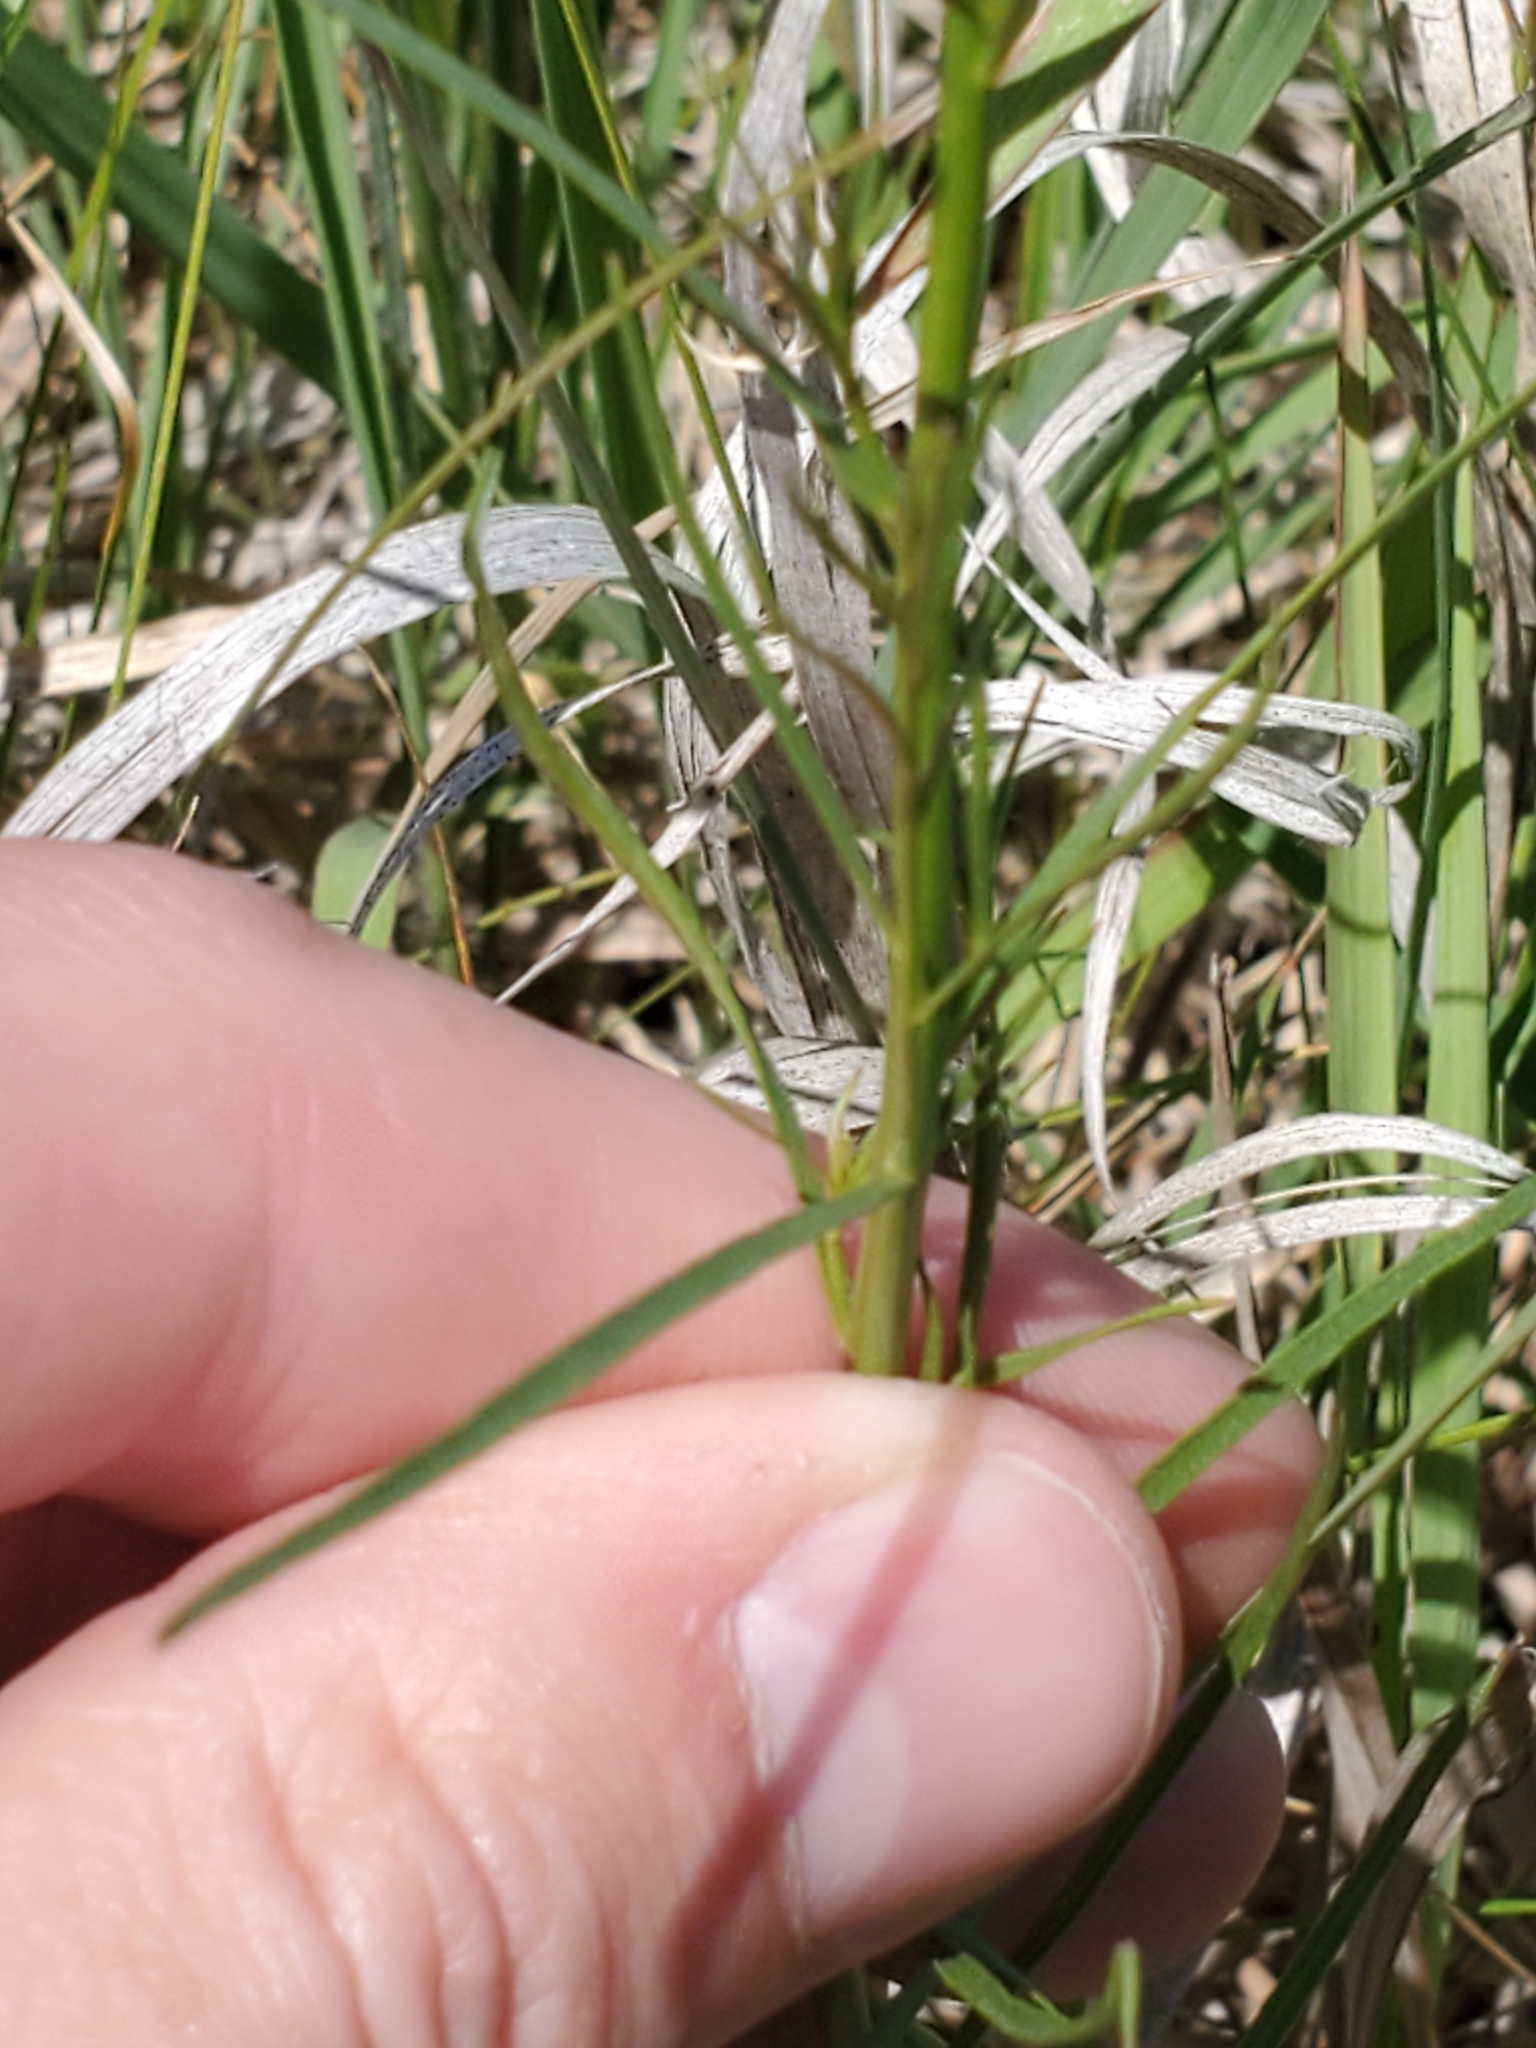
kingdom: Plantae
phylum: Tracheophyta
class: Magnoliopsida
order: Asterales
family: Campanulaceae
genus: Campanula
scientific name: Campanula intercedens
